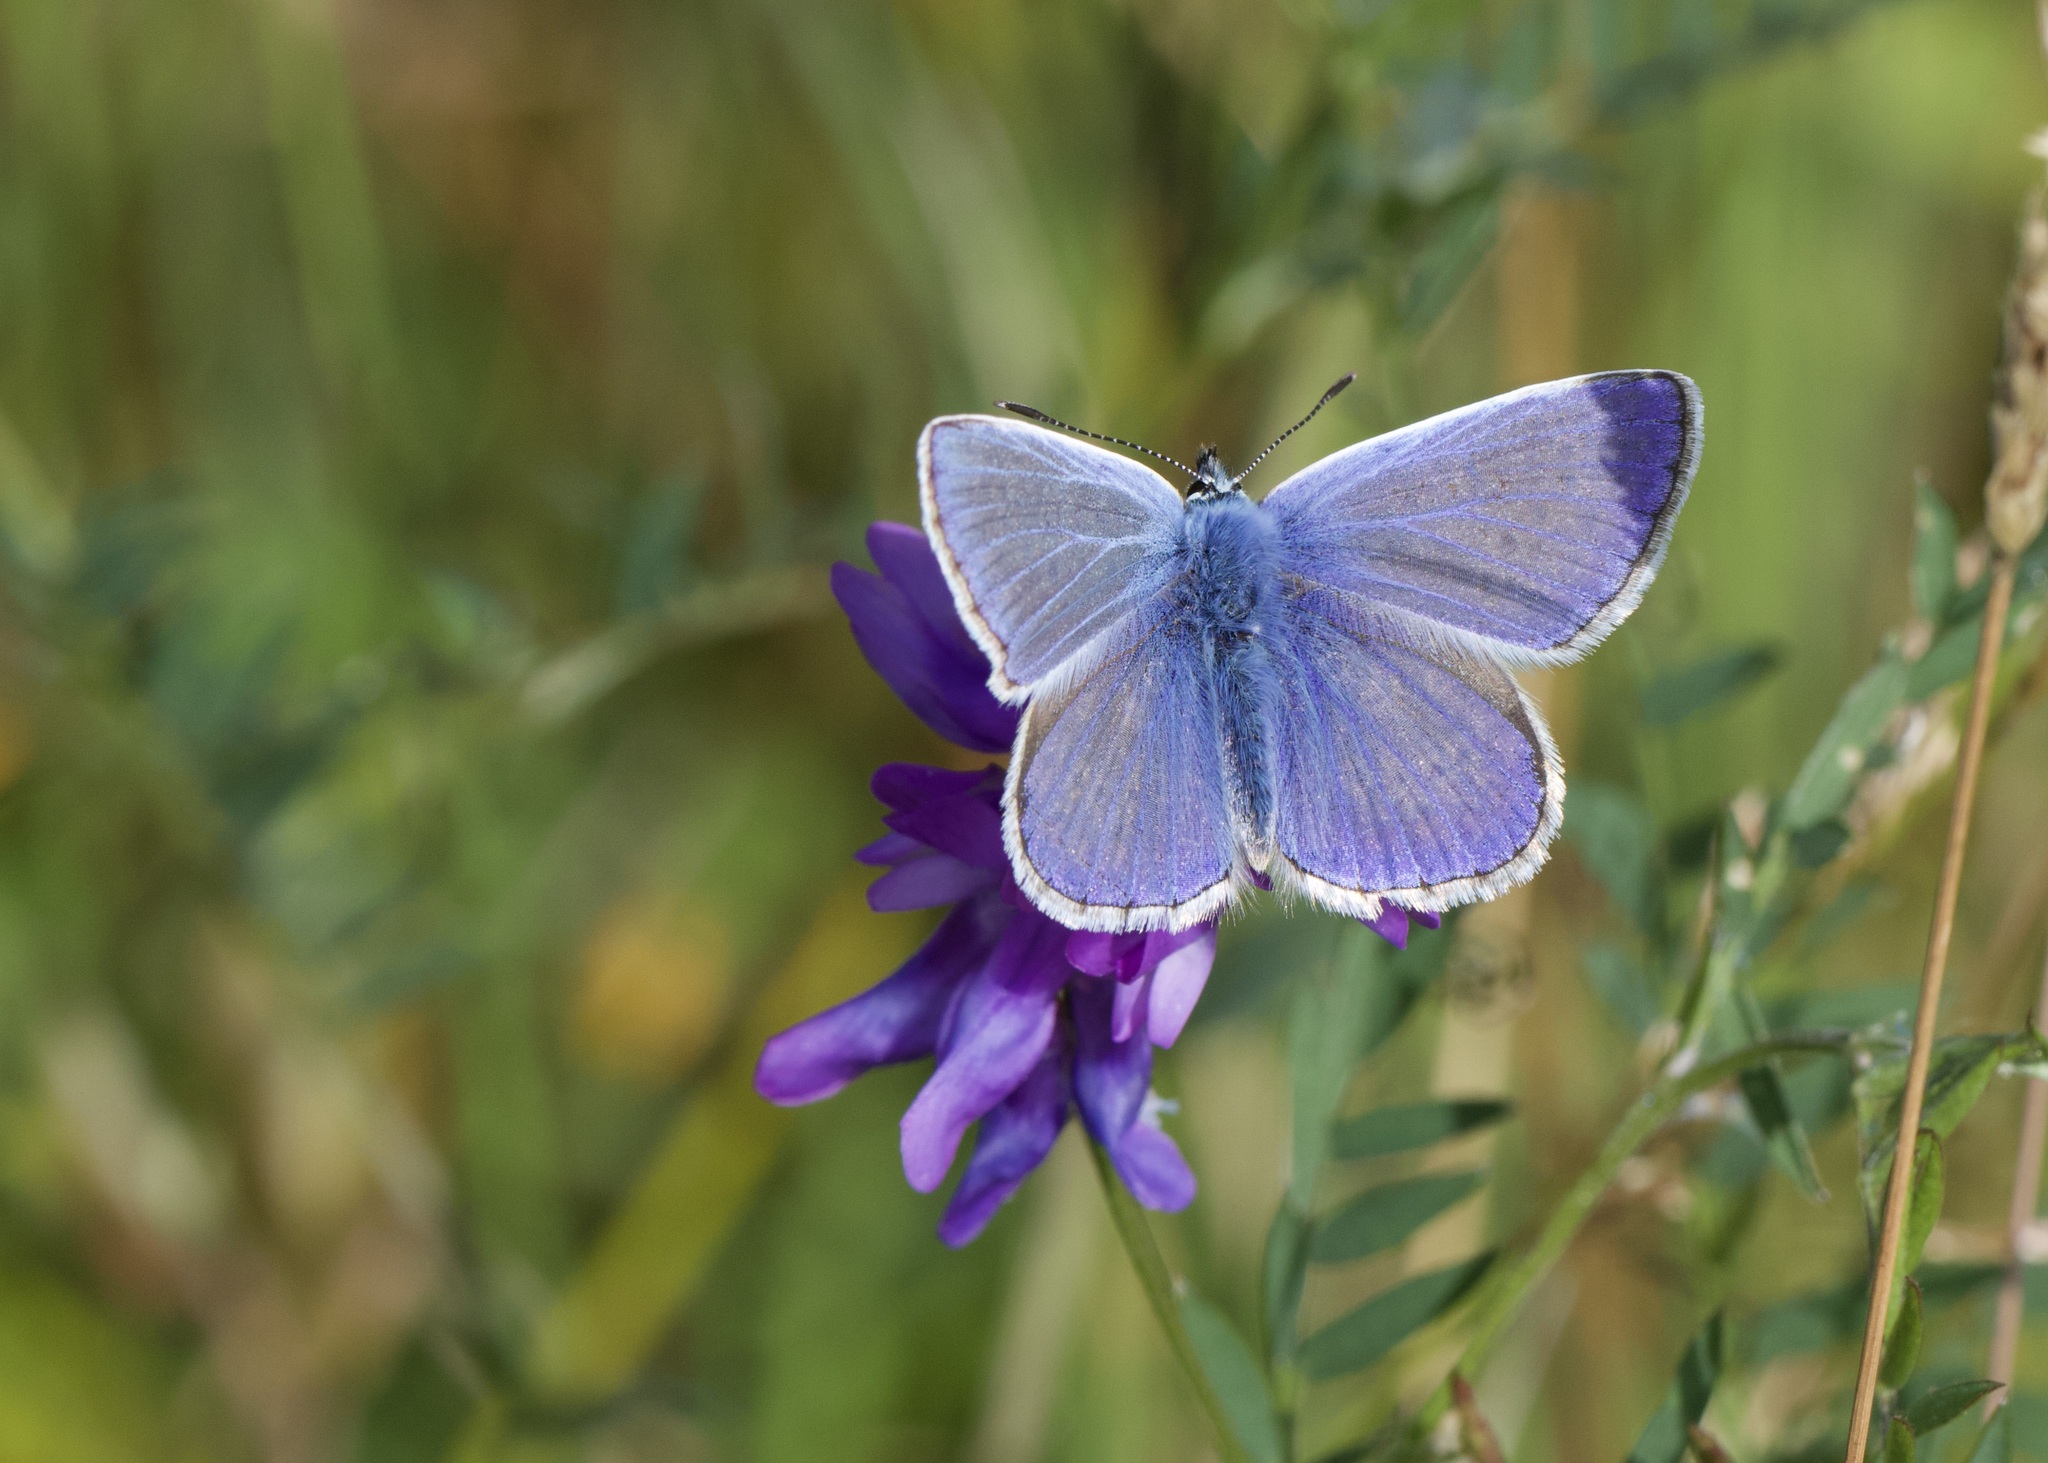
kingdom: Animalia
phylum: Arthropoda
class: Insecta
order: Lepidoptera
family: Lycaenidae
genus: Polyommatus
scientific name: Polyommatus icarus
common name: Common blue
